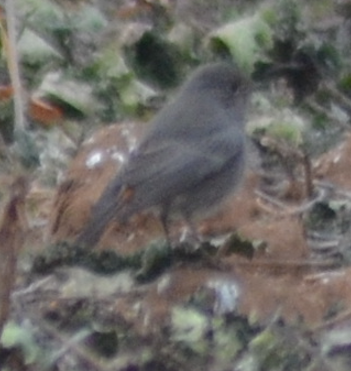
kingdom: Animalia
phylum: Chordata
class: Aves
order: Passeriformes
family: Muscicapidae
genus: Phoenicurus
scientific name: Phoenicurus ochruros
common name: Black redstart
